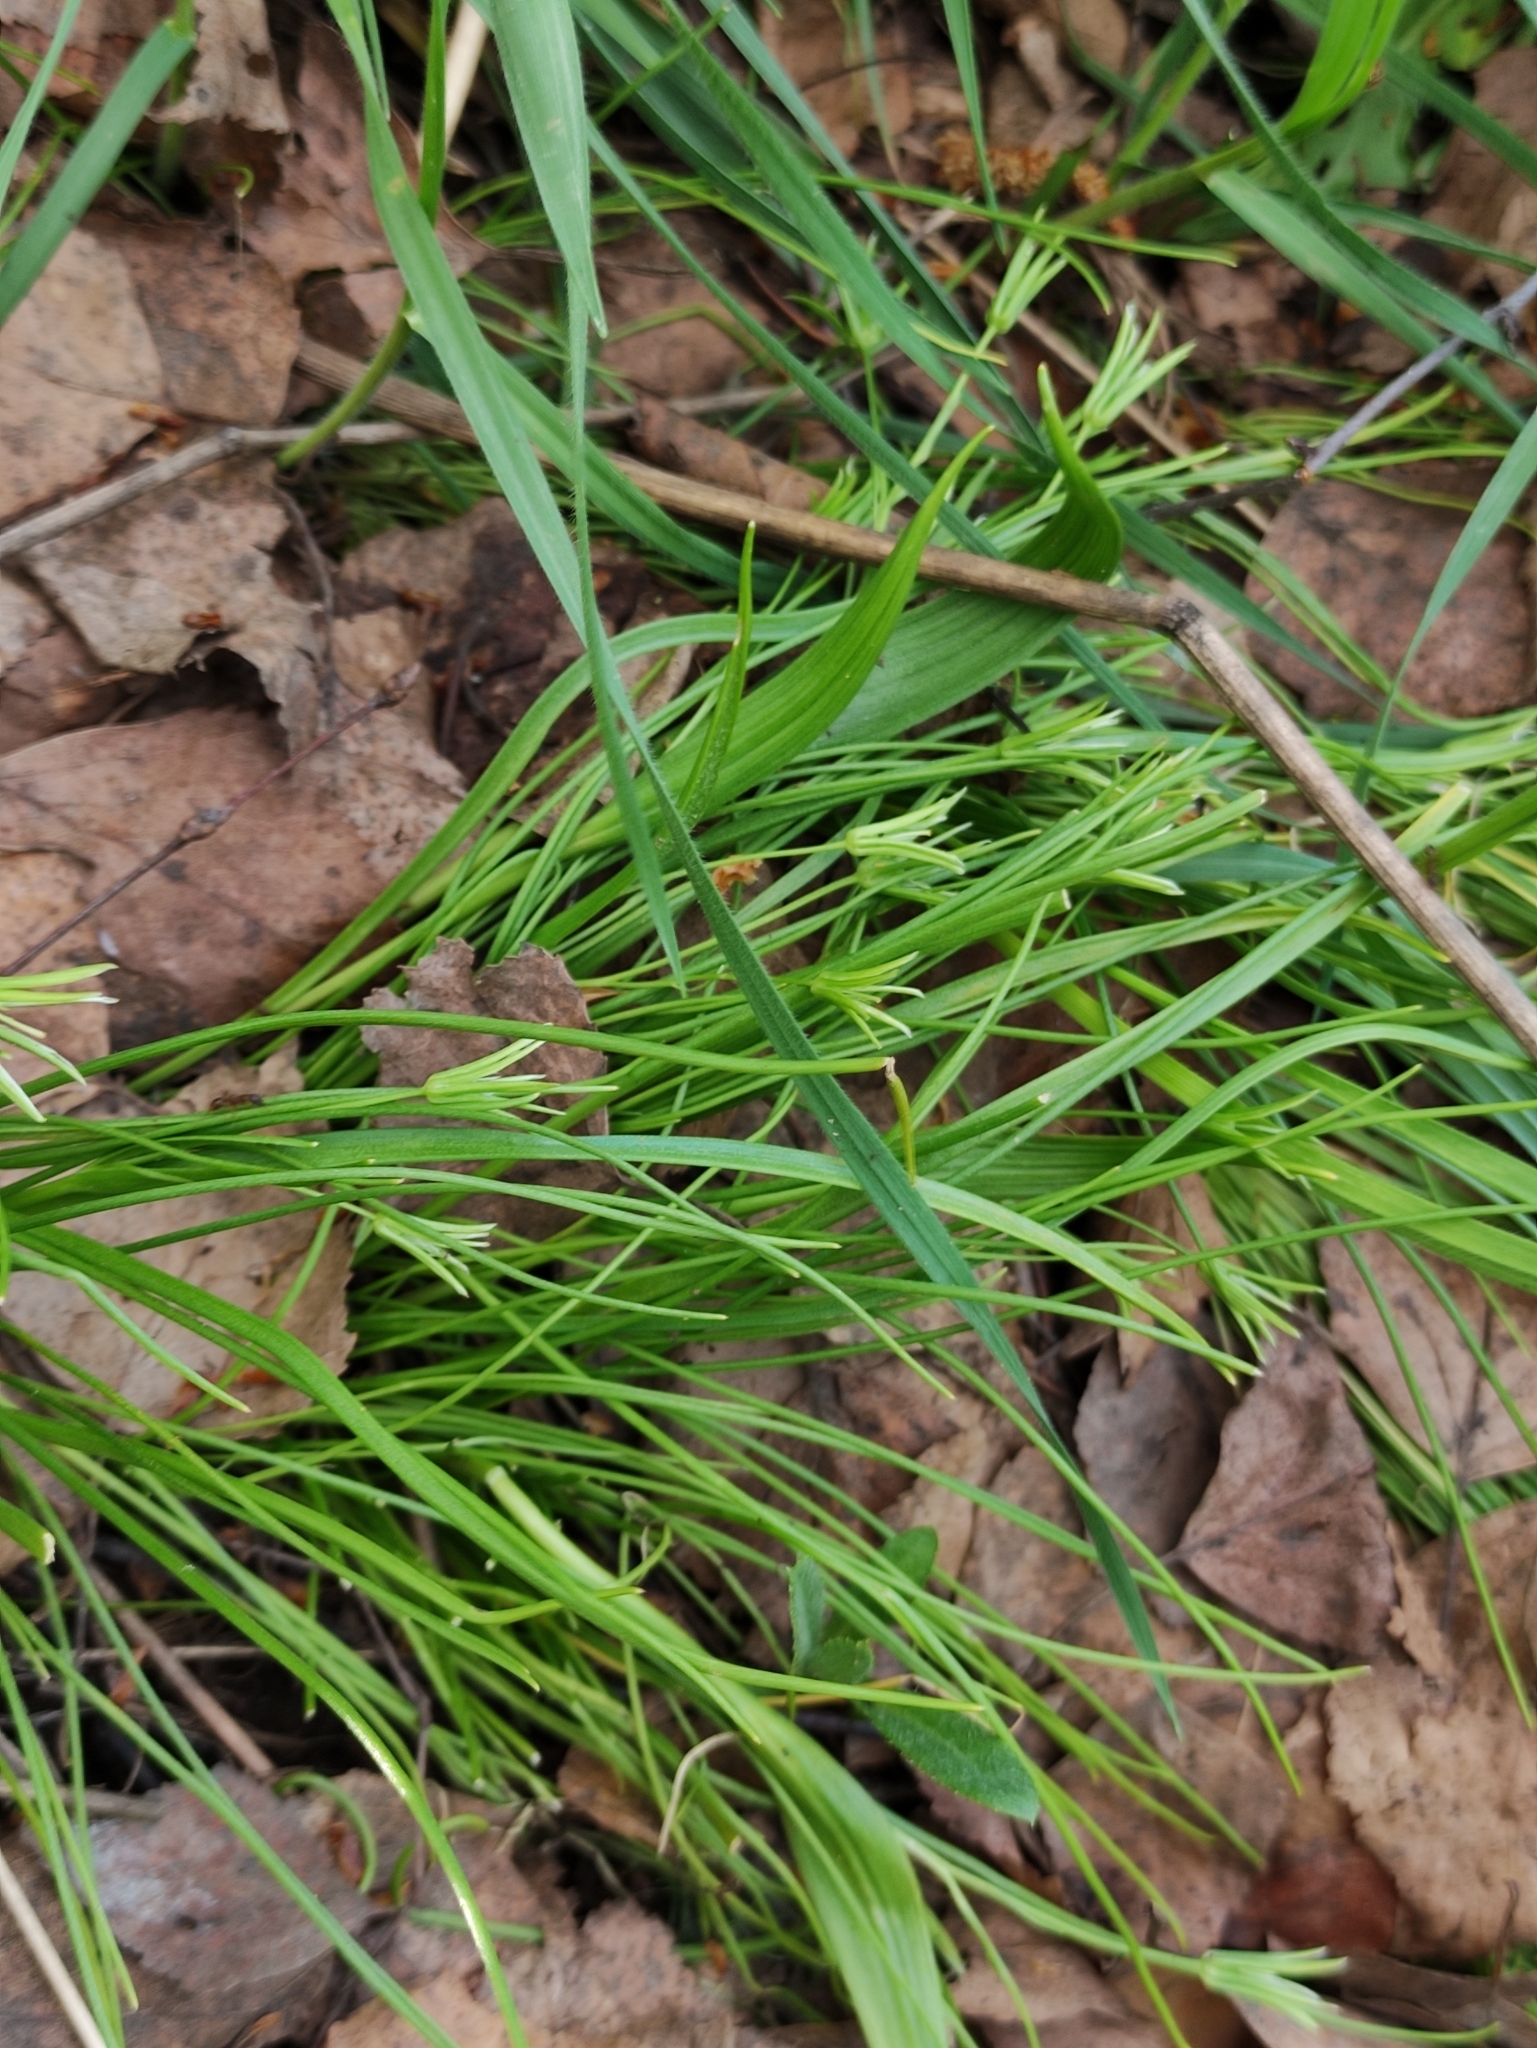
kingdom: Plantae
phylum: Tracheophyta
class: Liliopsida
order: Liliales
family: Liliaceae
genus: Gagea
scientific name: Gagea minima
